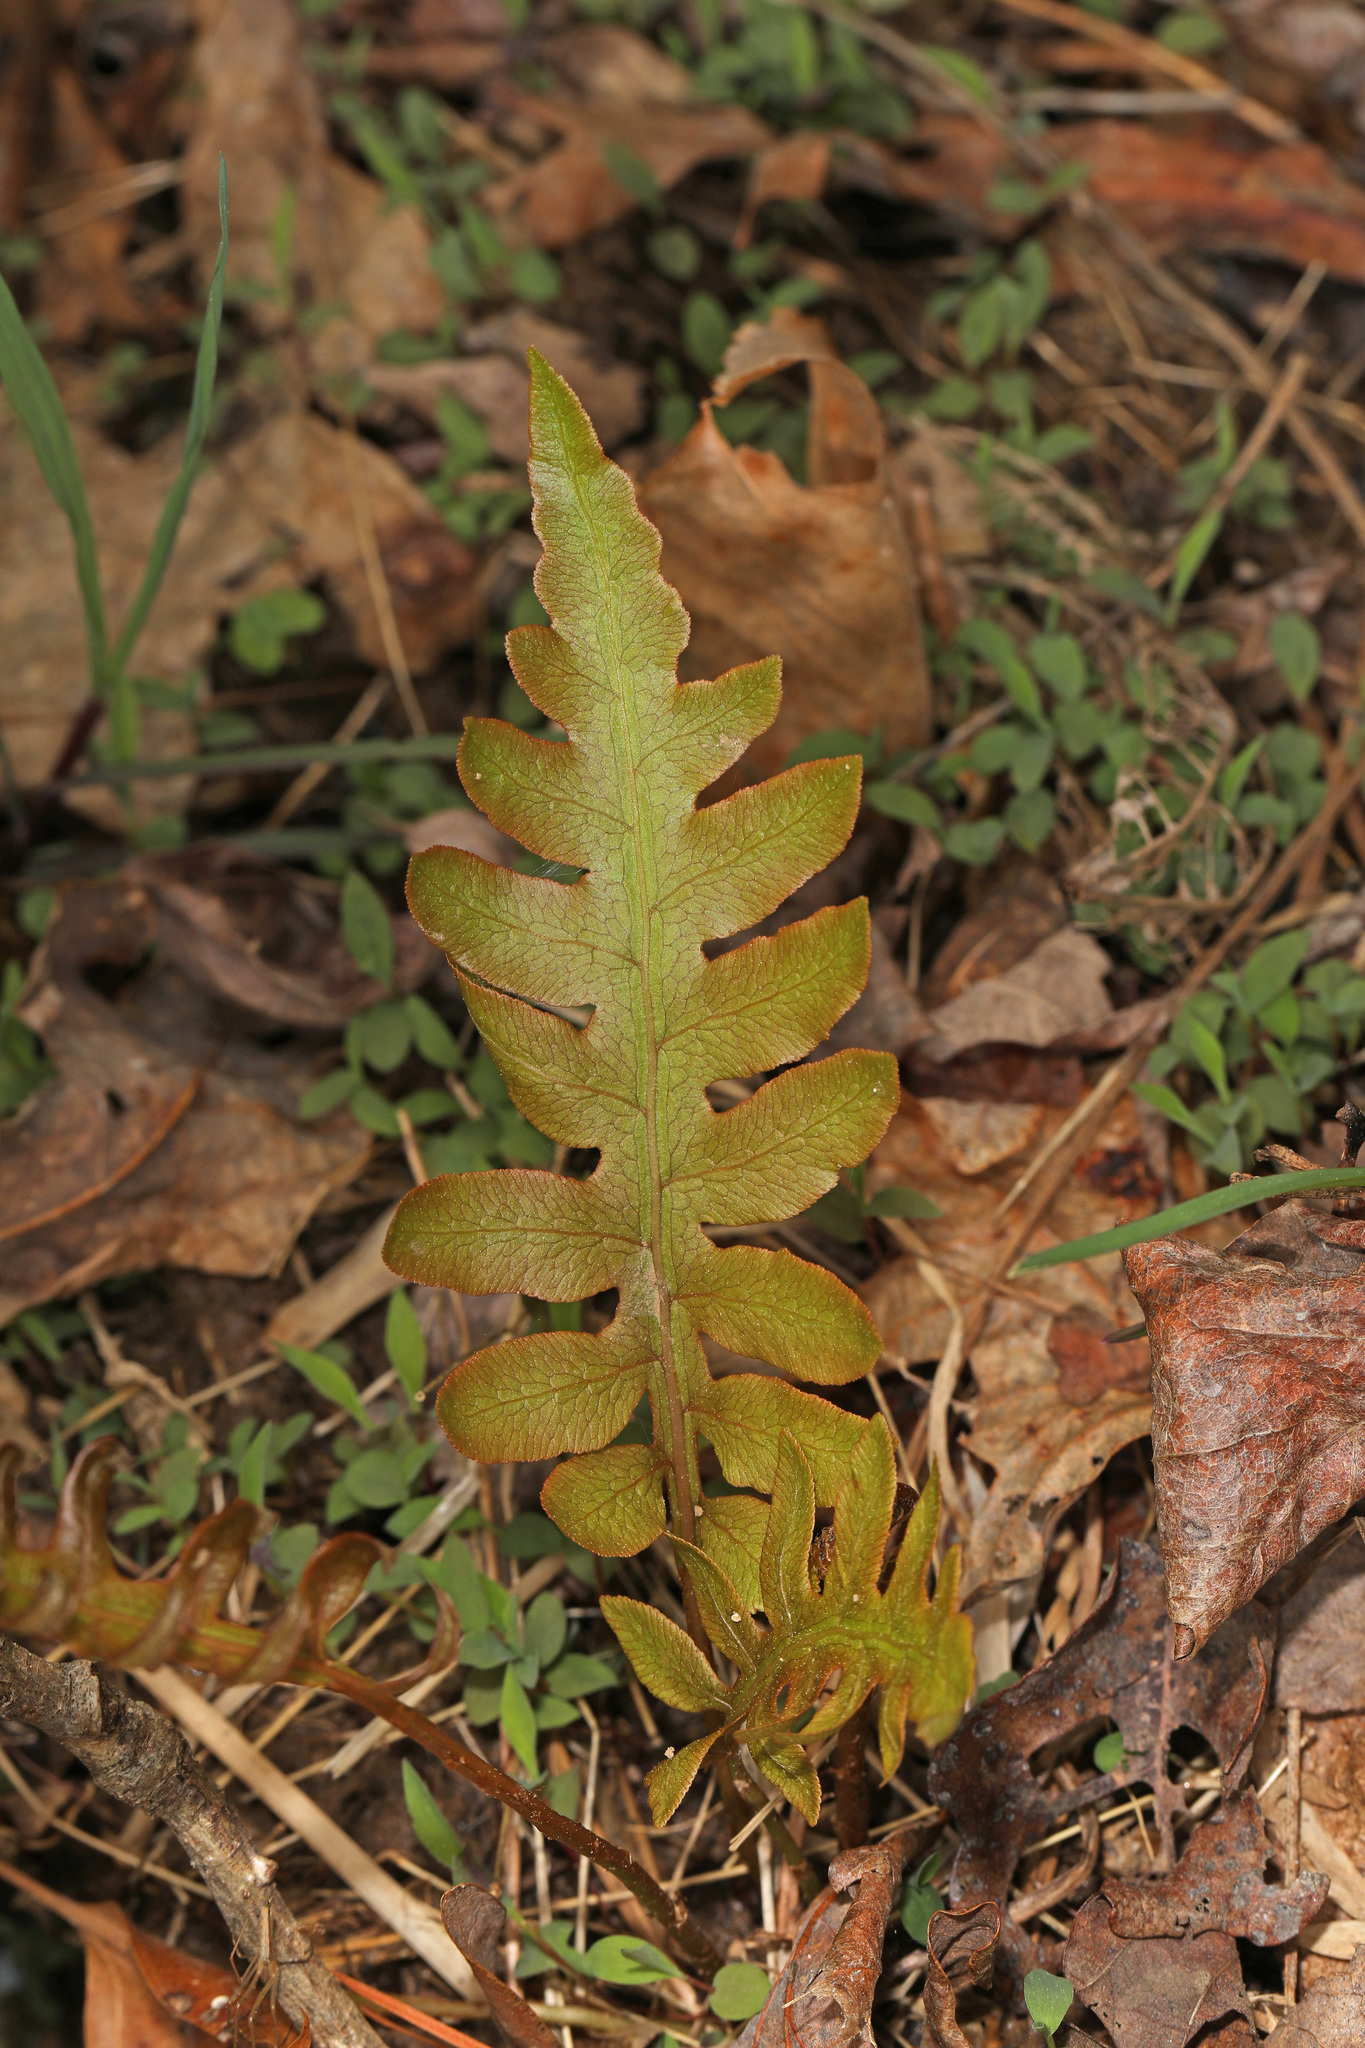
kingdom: Plantae
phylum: Tracheophyta
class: Polypodiopsida
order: Polypodiales
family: Blechnaceae
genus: Lorinseria
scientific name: Lorinseria areolata
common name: Dwarf chain fern
